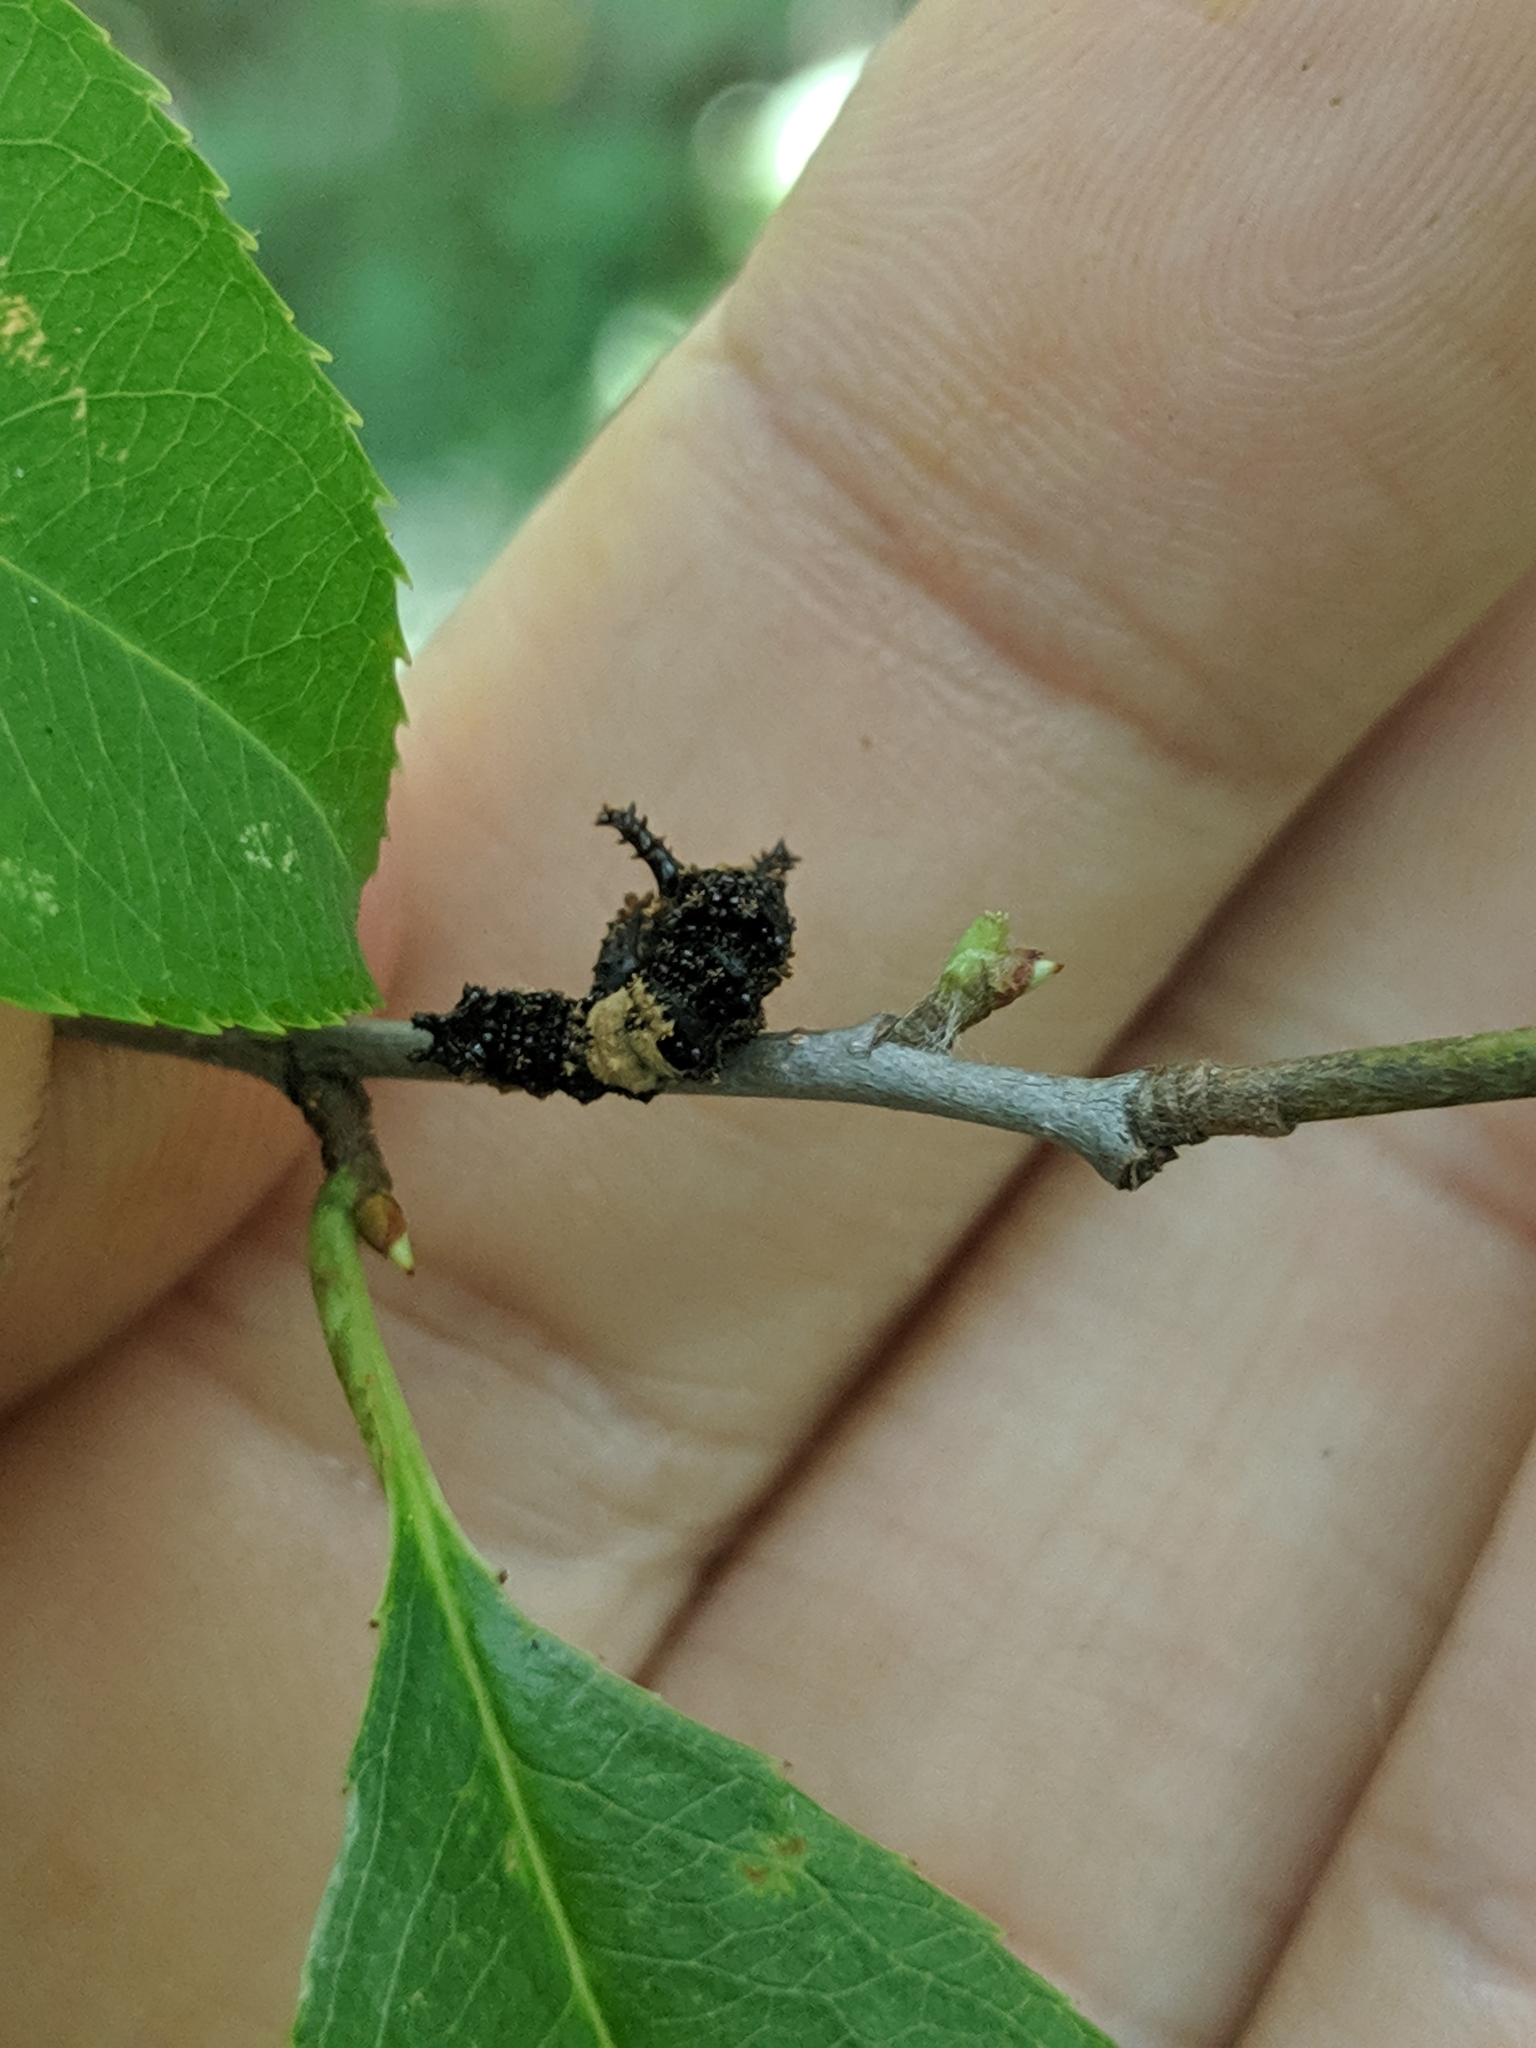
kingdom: Animalia
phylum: Arthropoda
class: Insecta
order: Lepidoptera
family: Nymphalidae
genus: Limenitis
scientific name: Limenitis archippus
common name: Viceroy
